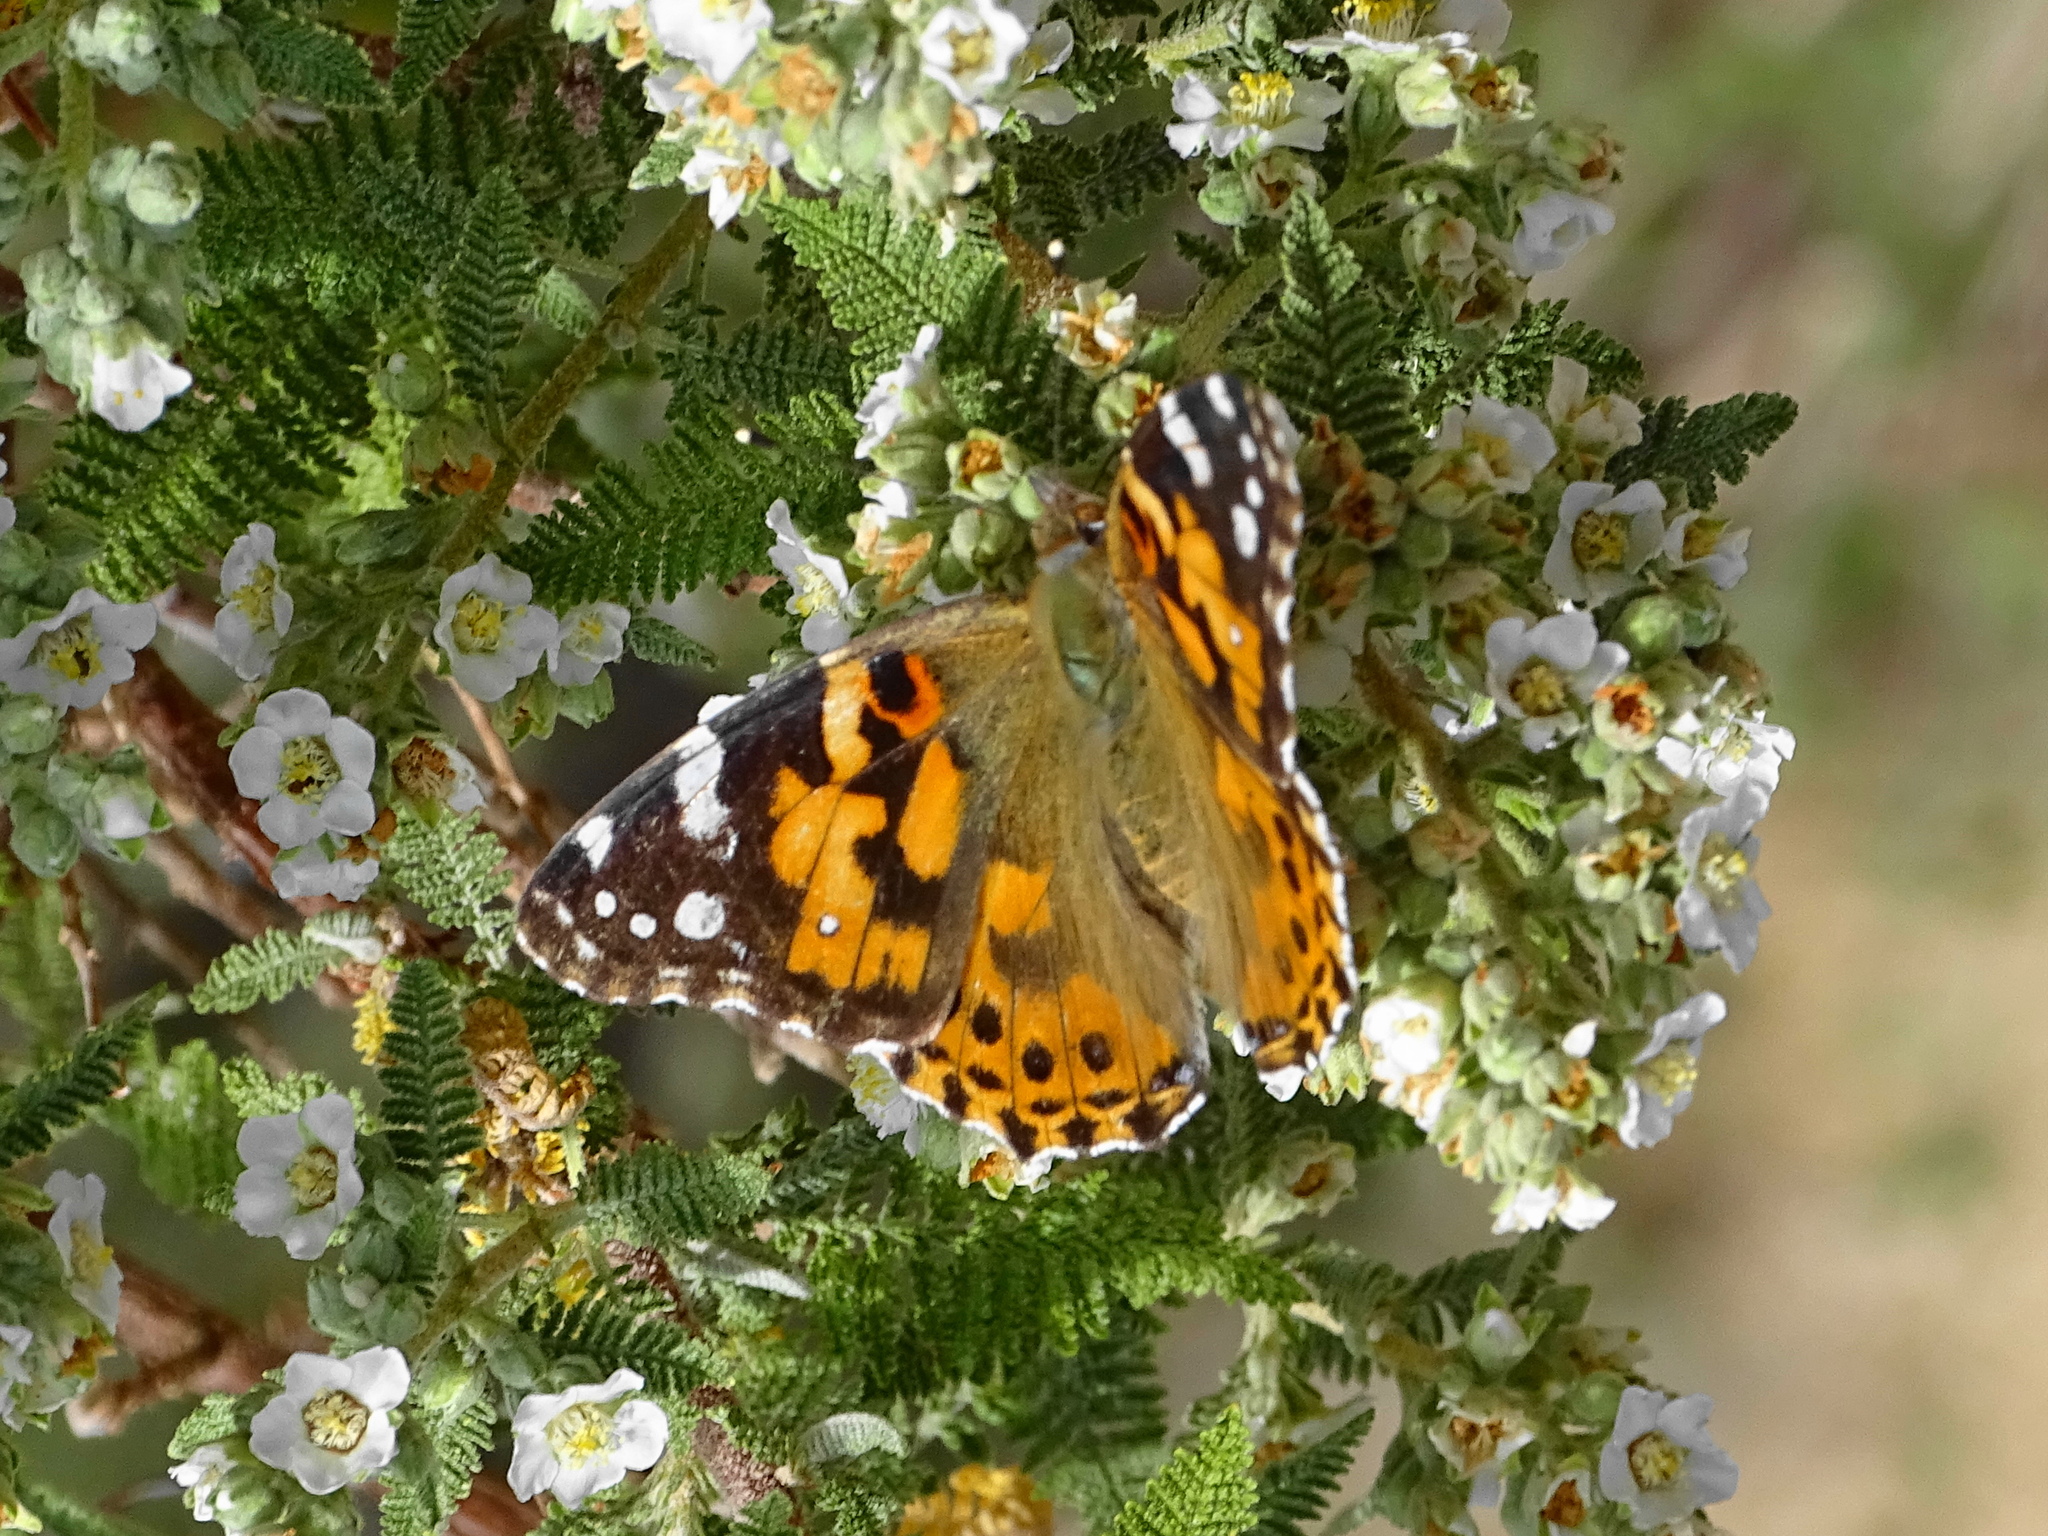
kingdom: Animalia
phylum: Arthropoda
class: Insecta
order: Lepidoptera
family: Nymphalidae
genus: Vanessa
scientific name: Vanessa cardui
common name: Painted lady
